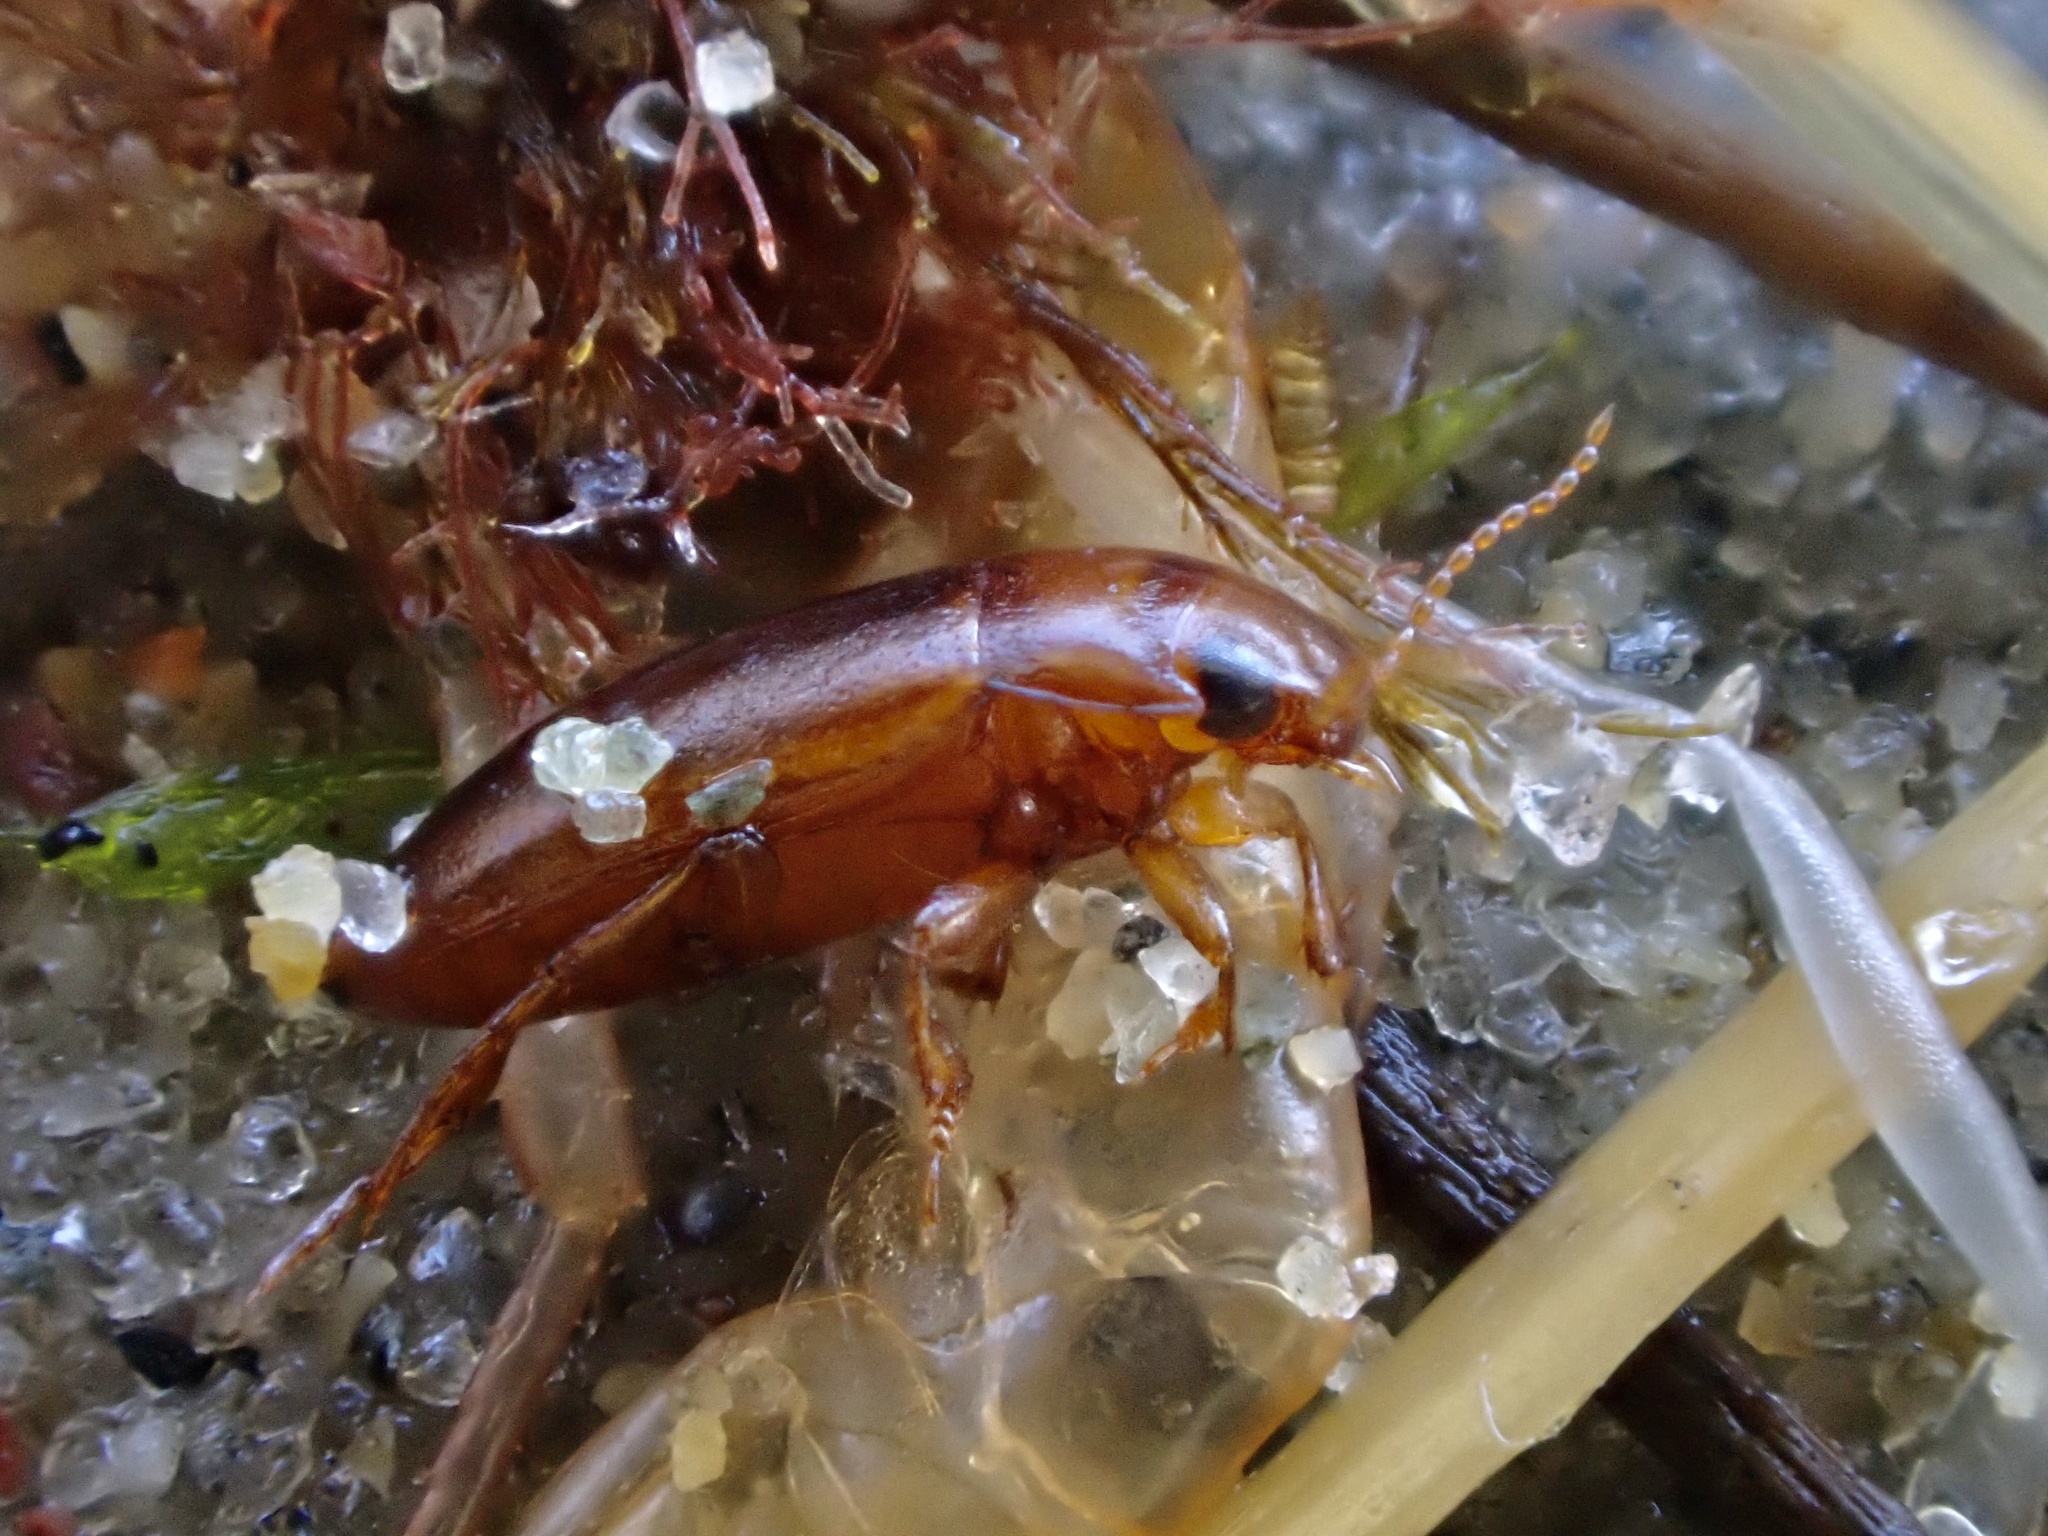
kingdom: Animalia
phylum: Arthropoda
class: Insecta
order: Coleoptera
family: Dytiscidae
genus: Celina
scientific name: Celina angustata
